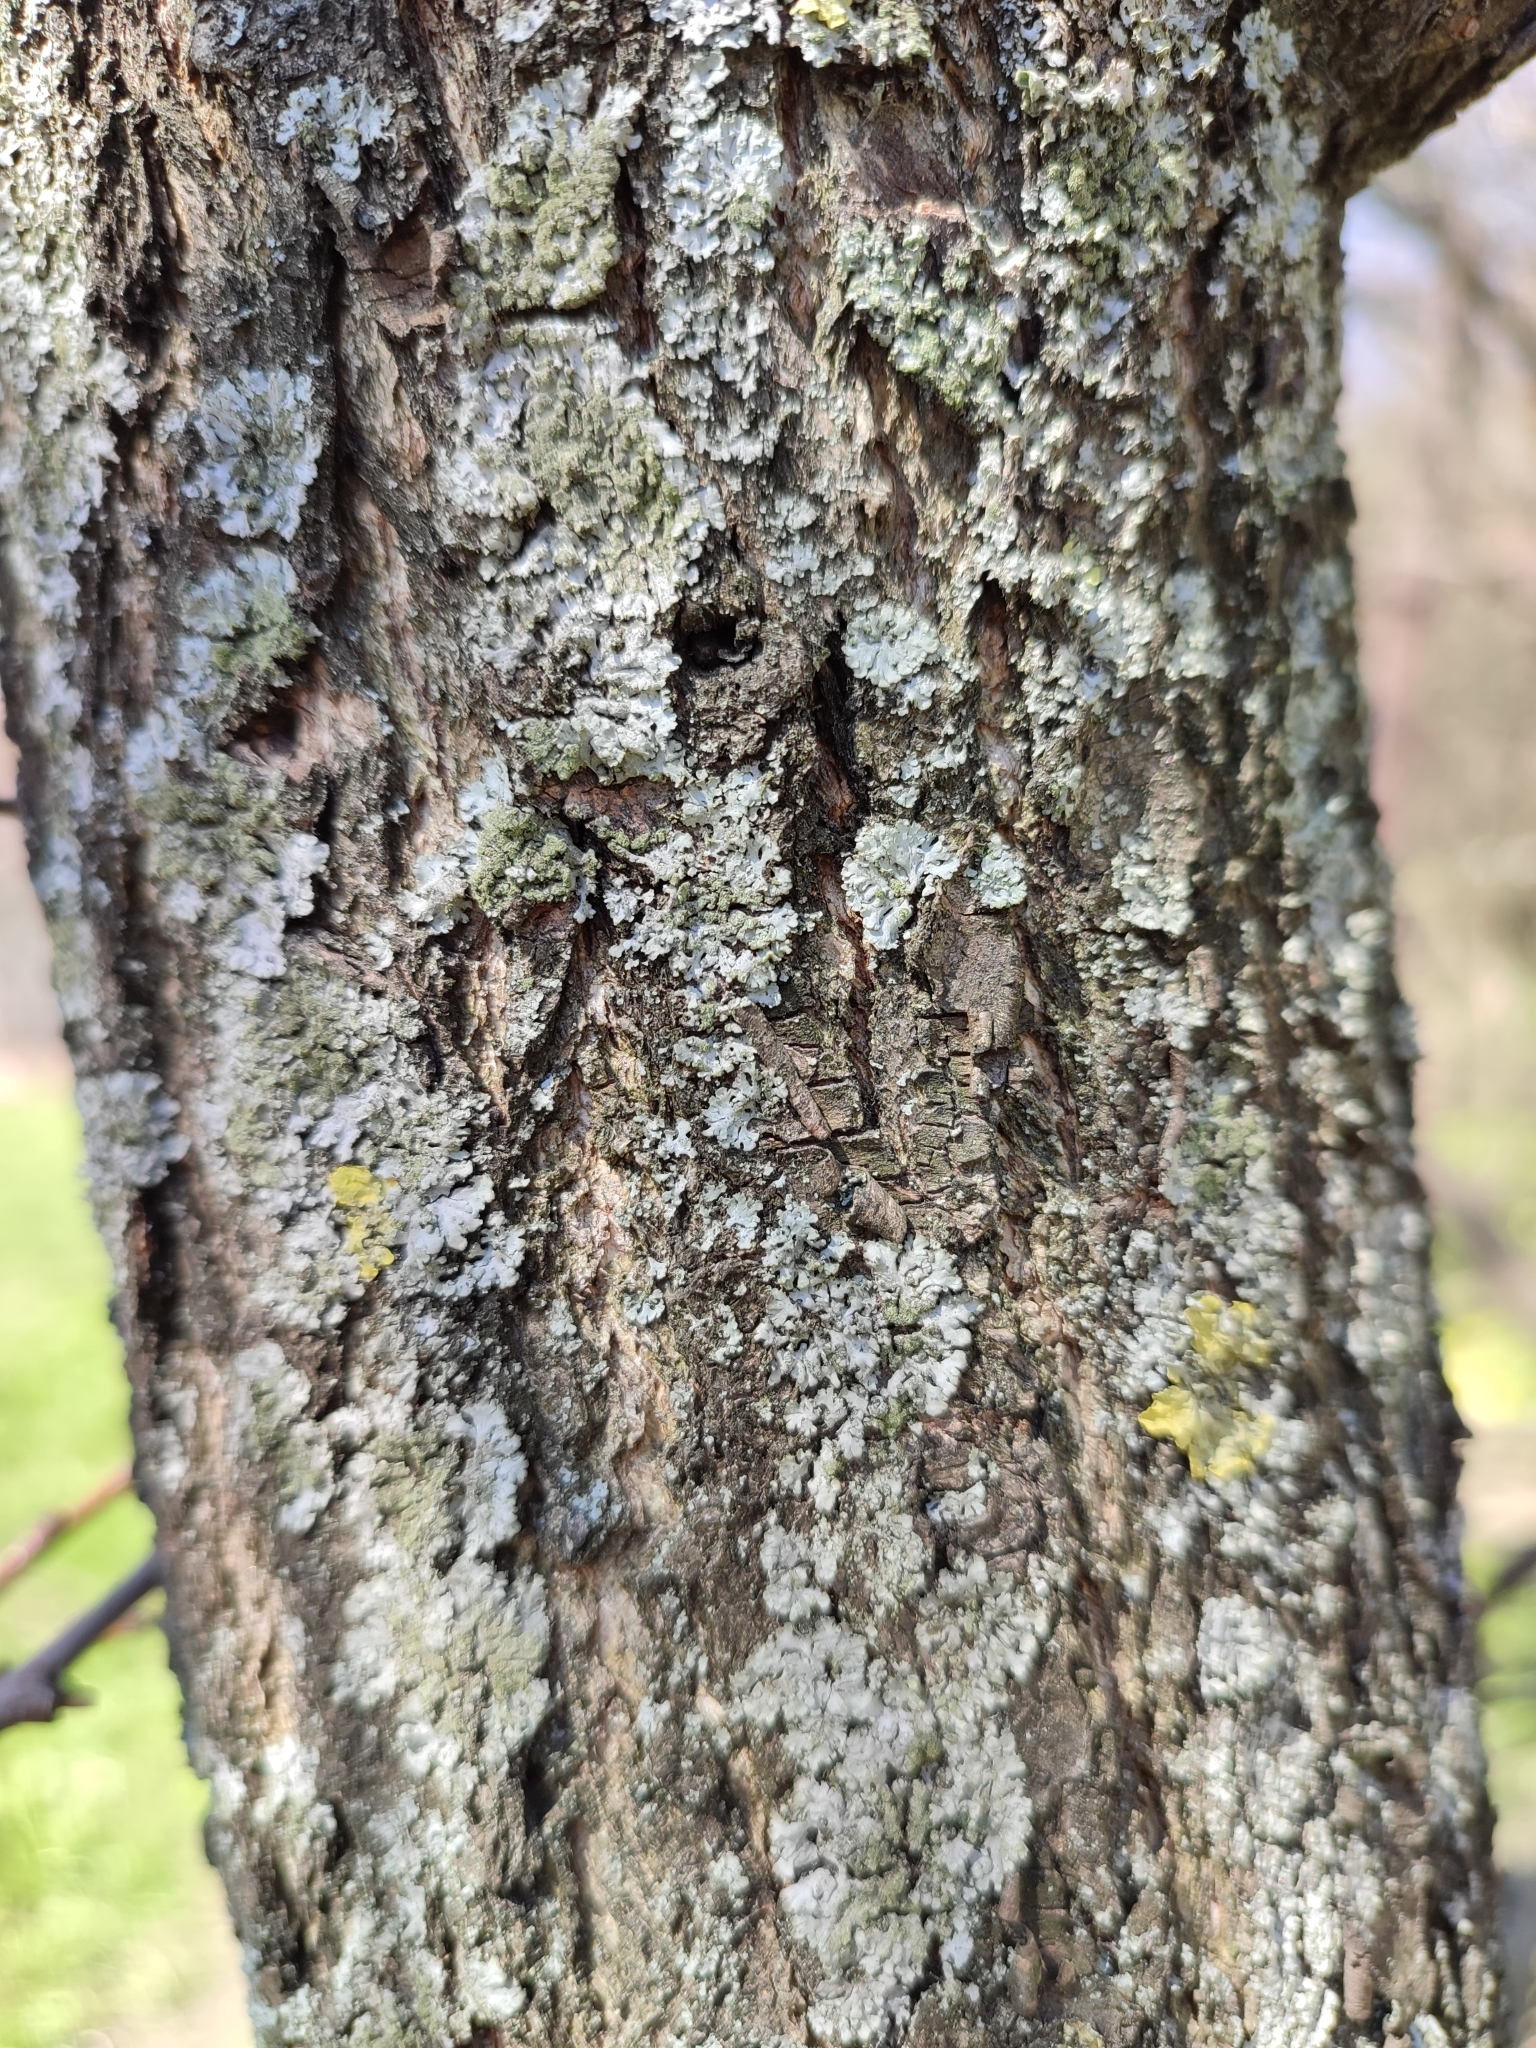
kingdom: Fungi
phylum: Ascomycota
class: Lecanoromycetes
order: Caliciales
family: Physciaceae
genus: Phaeophyscia
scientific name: Phaeophyscia orbicularis
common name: Mealy shadow lichen
